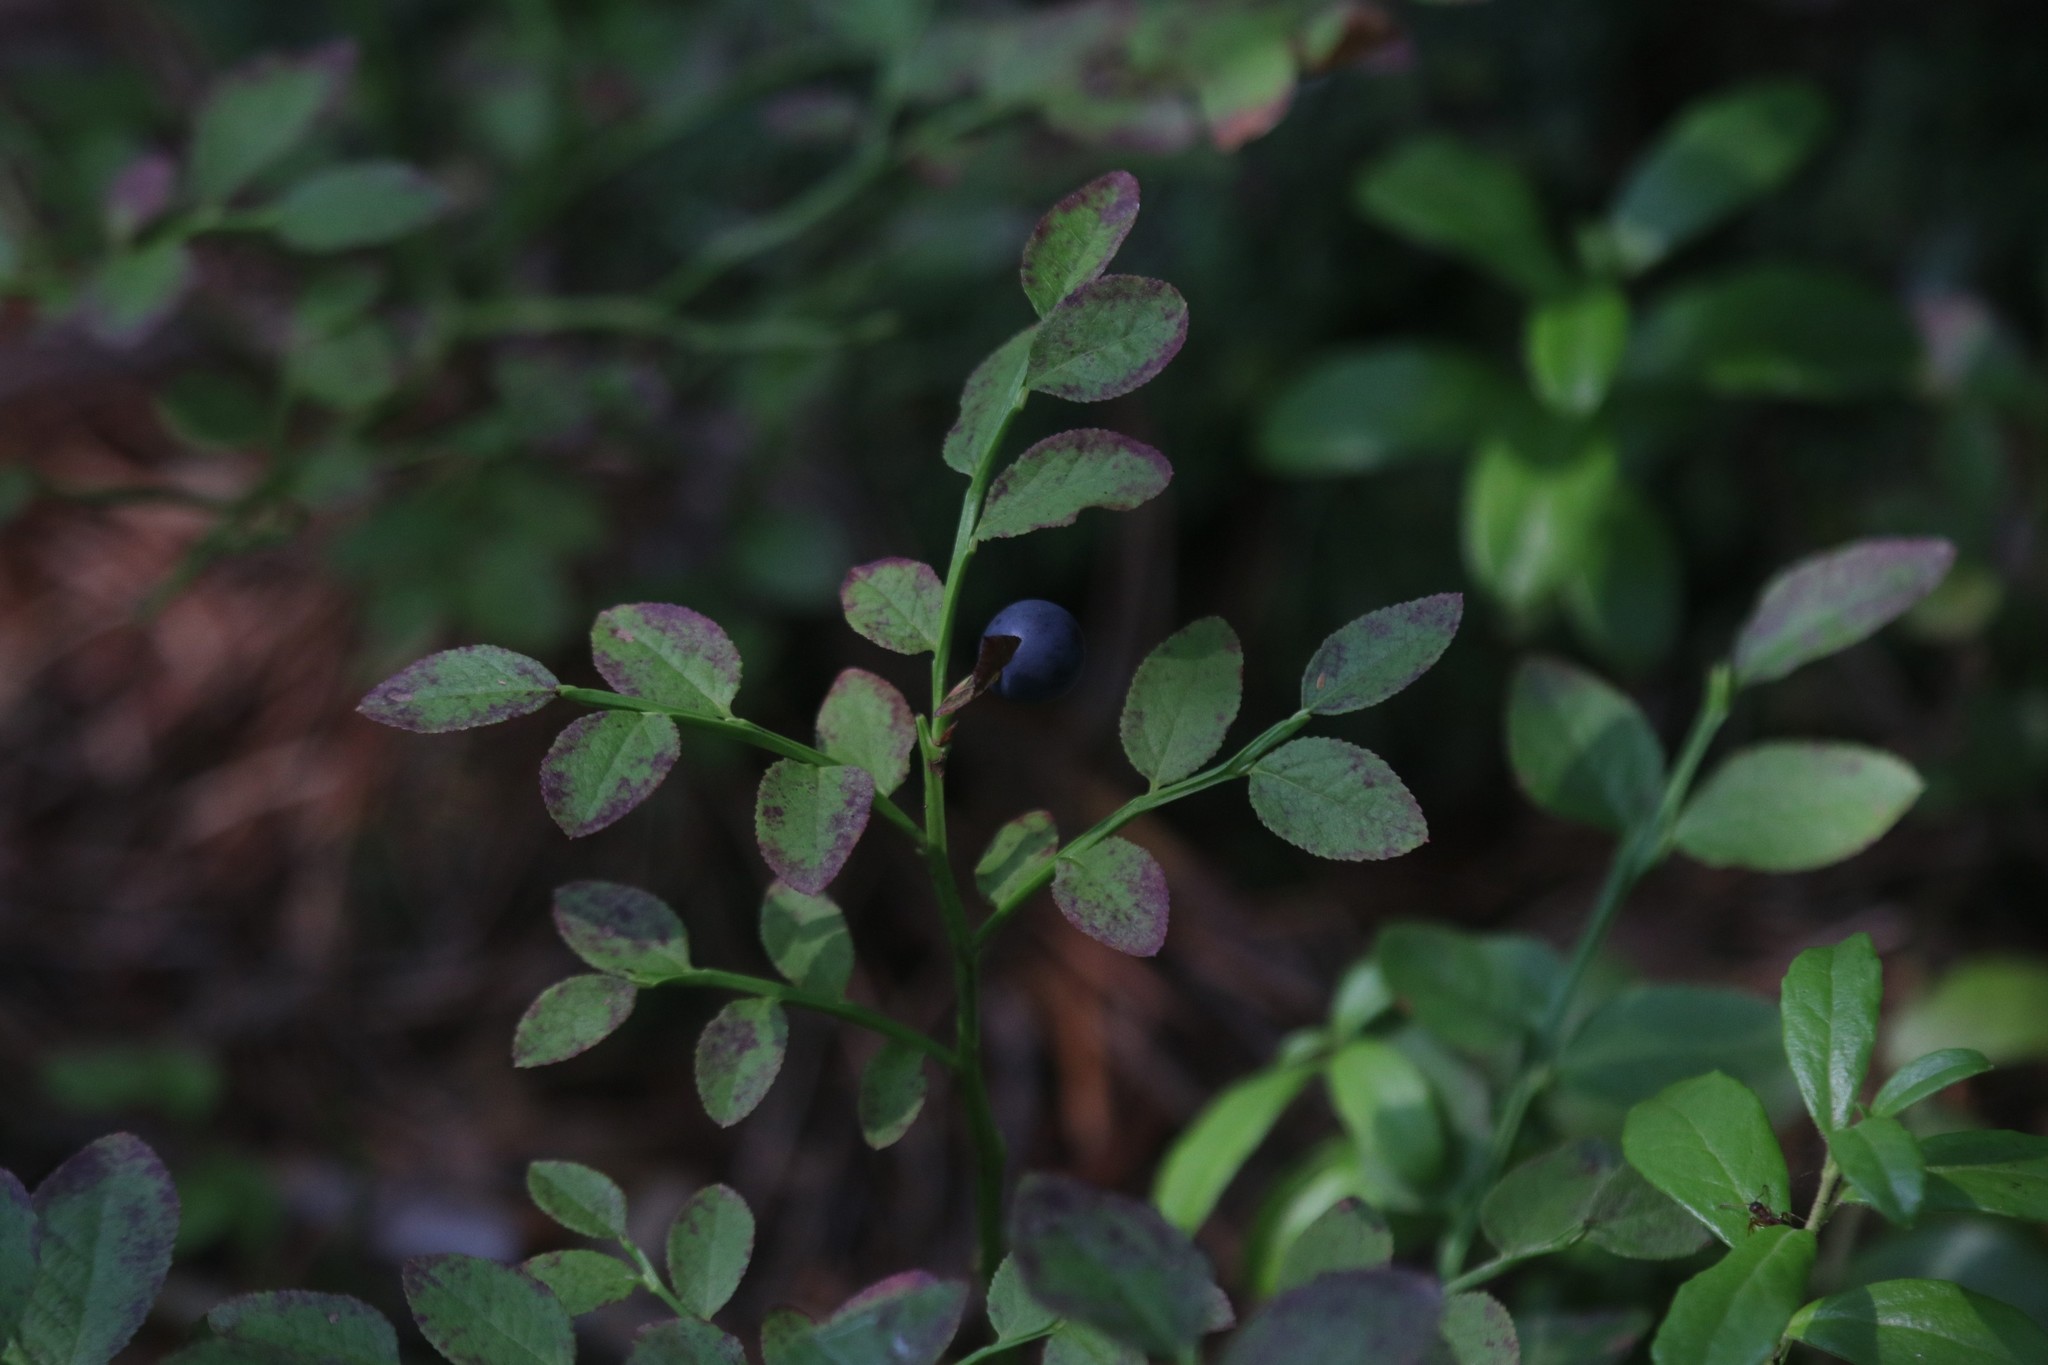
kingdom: Plantae
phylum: Tracheophyta
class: Magnoliopsida
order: Ericales
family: Ericaceae
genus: Vaccinium
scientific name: Vaccinium myrtillus
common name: Bilberry
